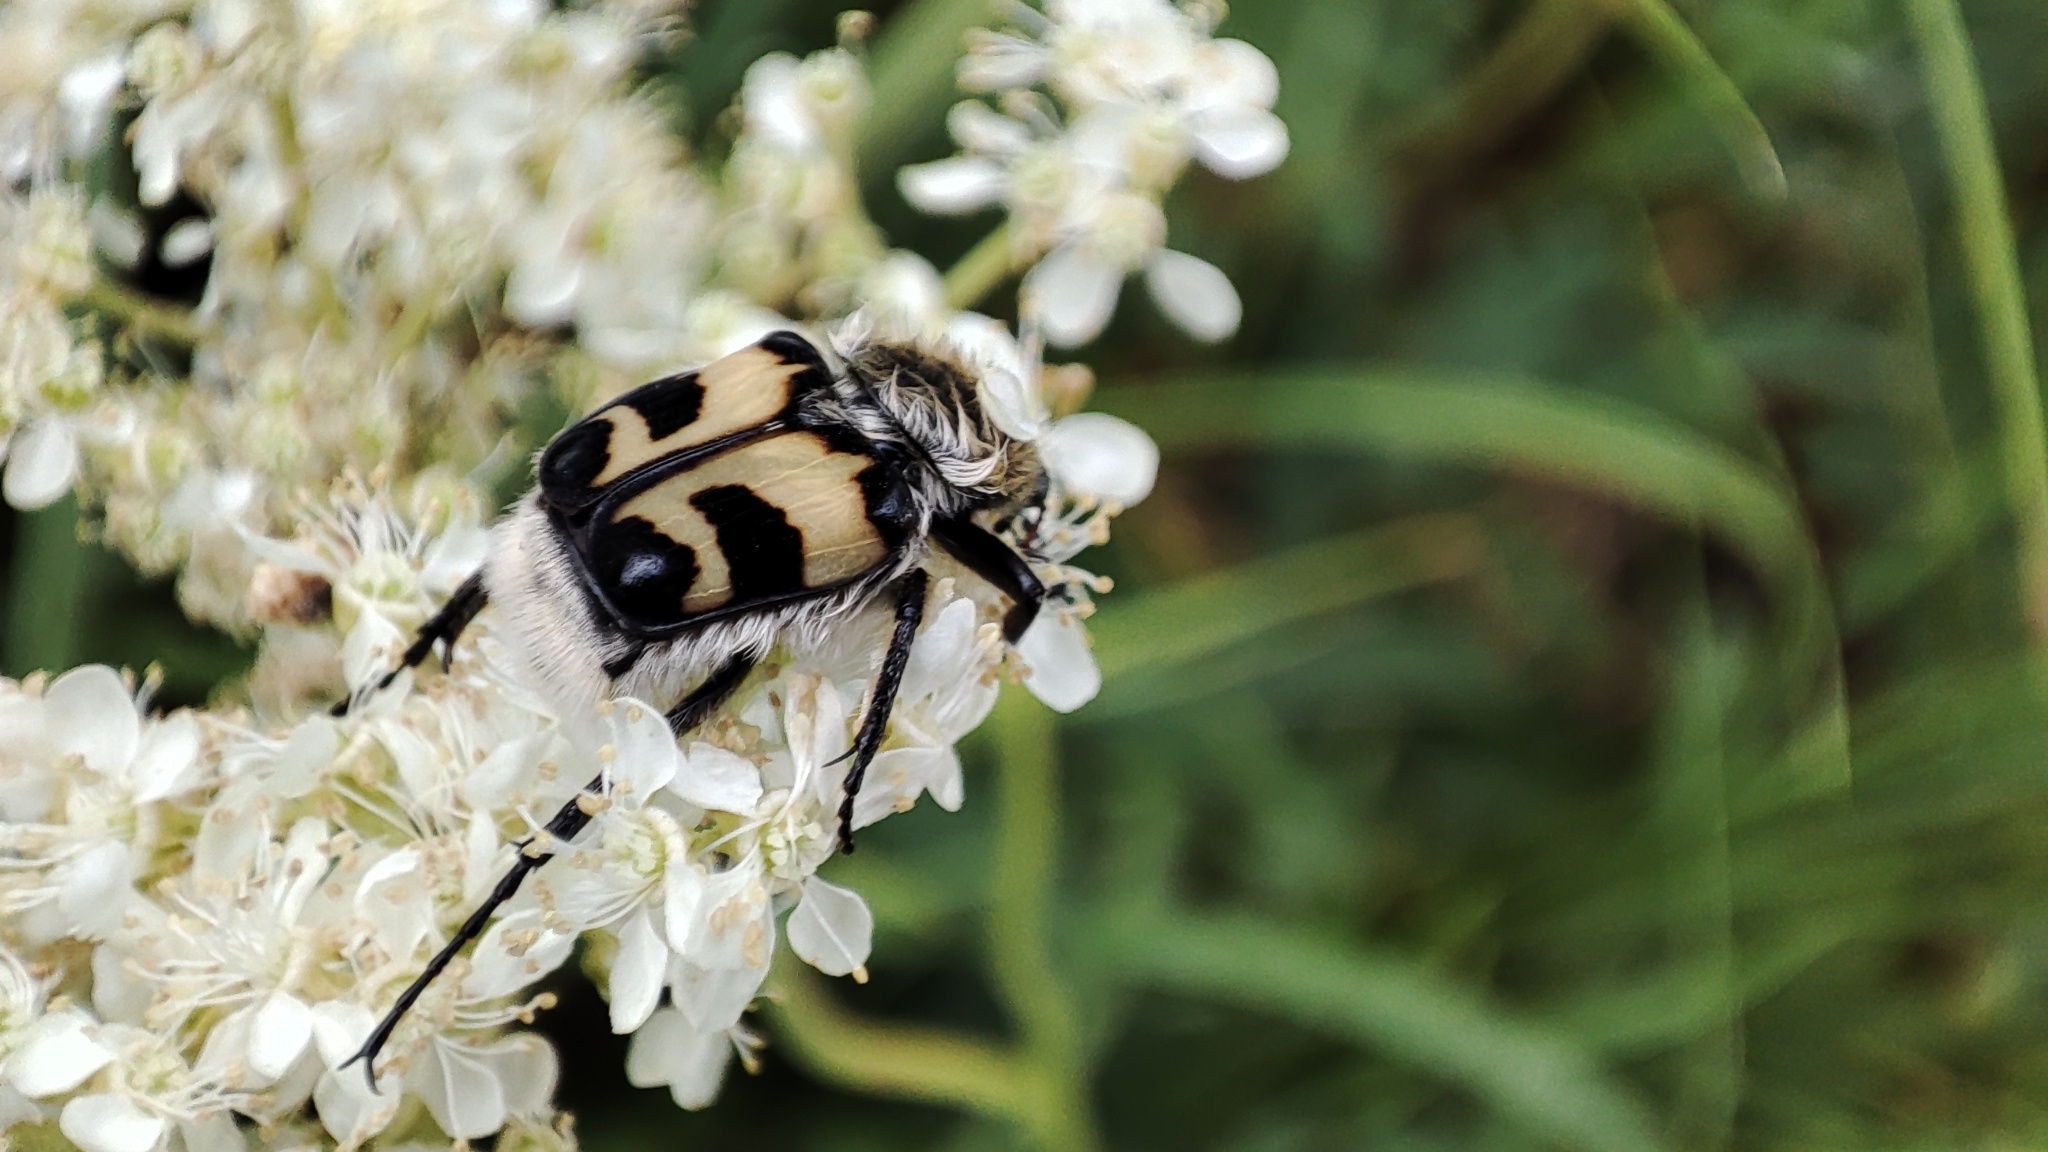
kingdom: Animalia
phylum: Arthropoda
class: Insecta
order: Coleoptera
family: Scarabaeidae
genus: Trichius
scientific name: Trichius fasciatus
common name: Bee beetle
